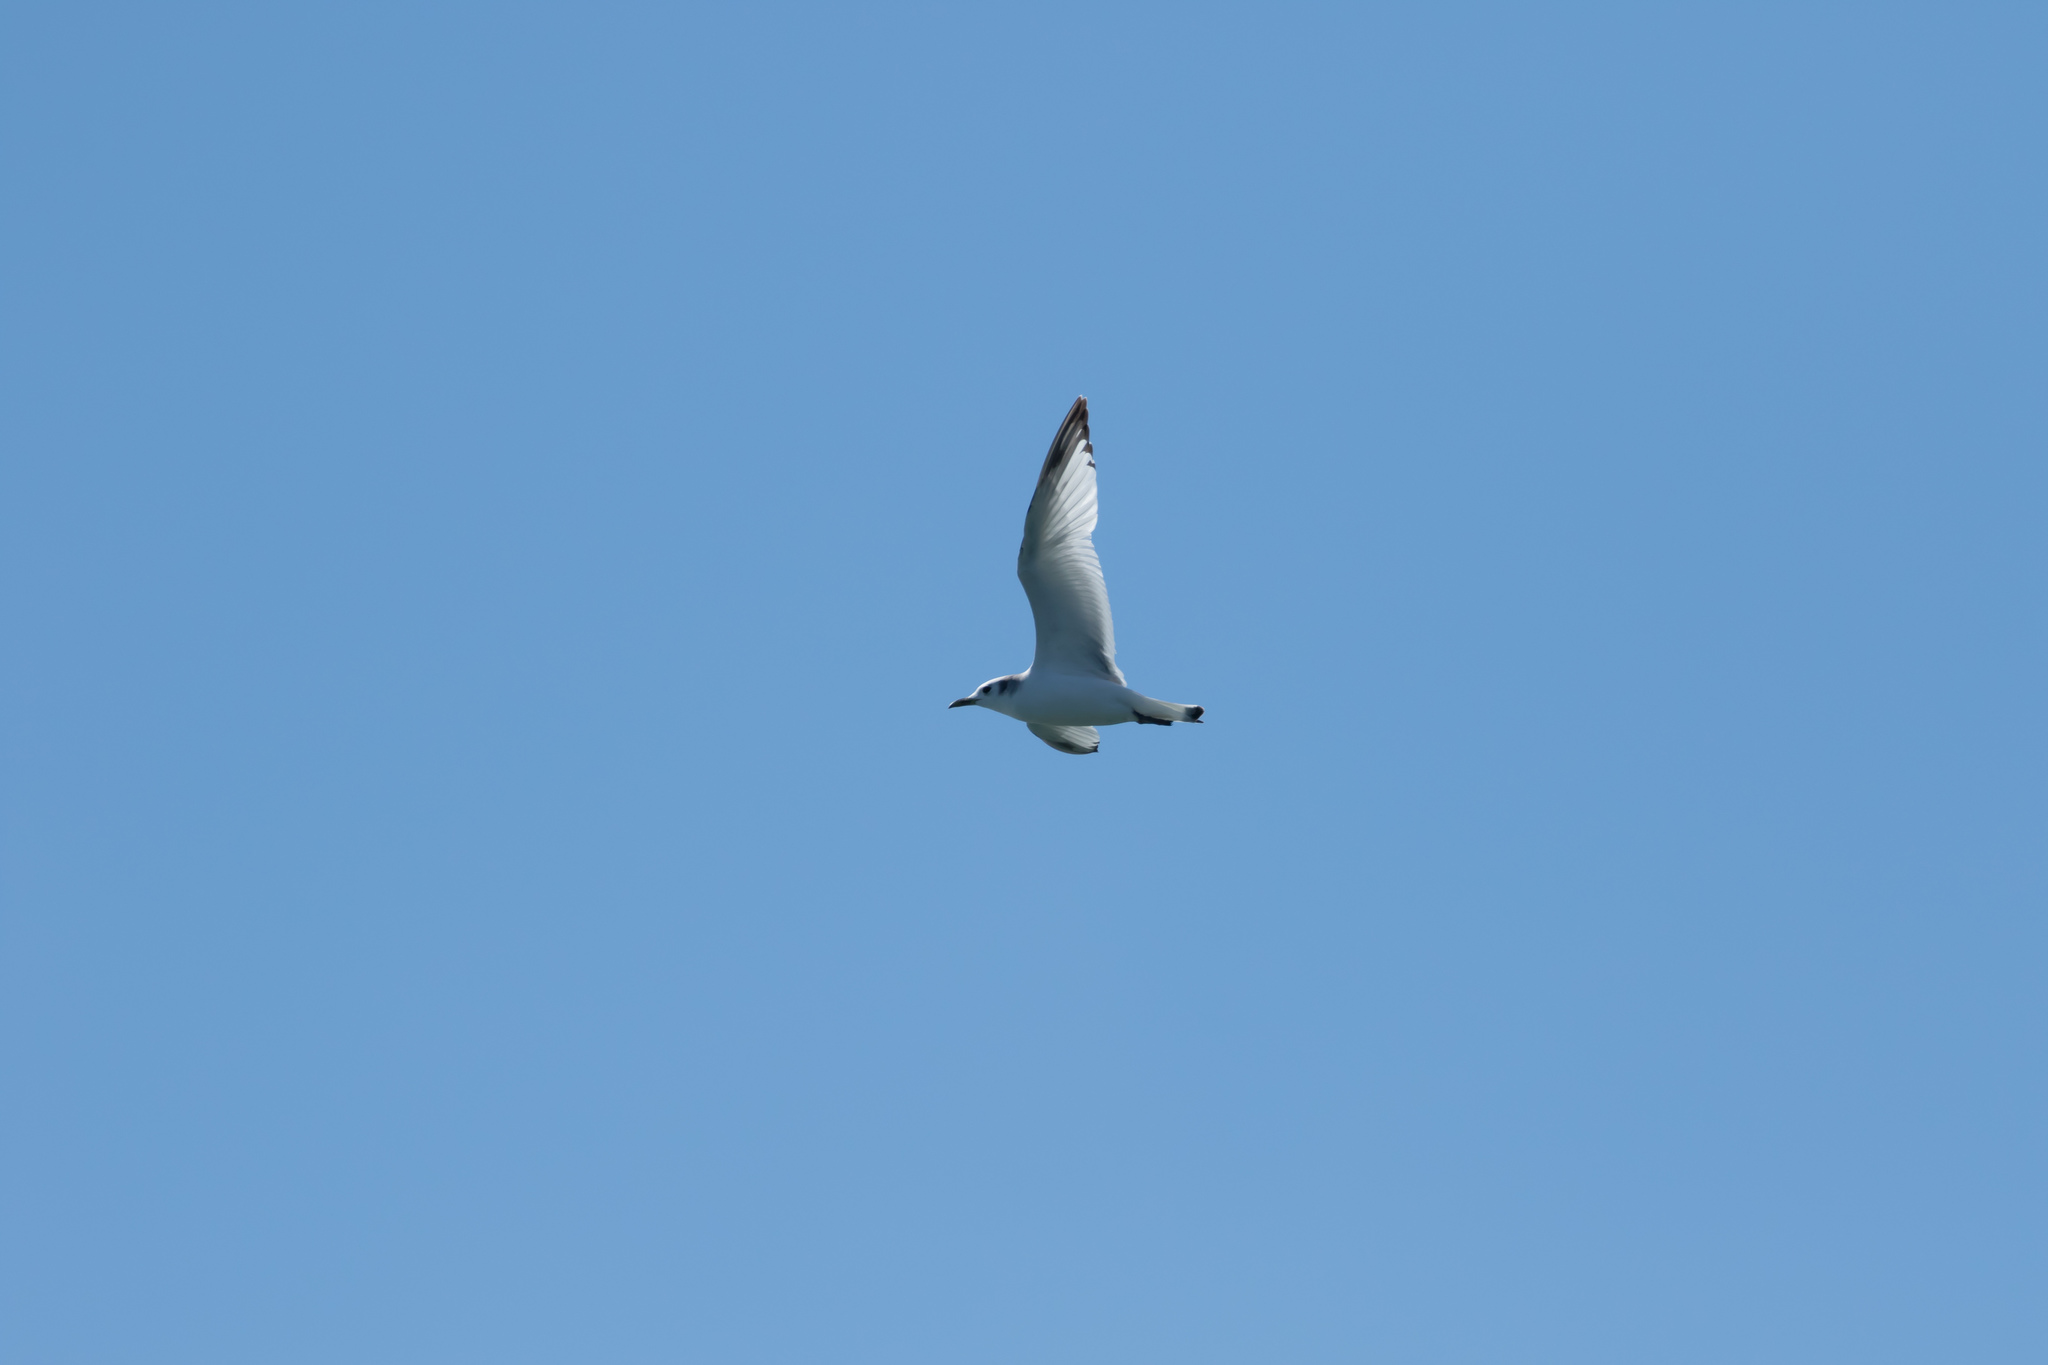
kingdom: Animalia
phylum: Chordata
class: Aves
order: Charadriiformes
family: Laridae
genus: Rissa
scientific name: Rissa tridactyla
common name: Black-legged kittiwake
